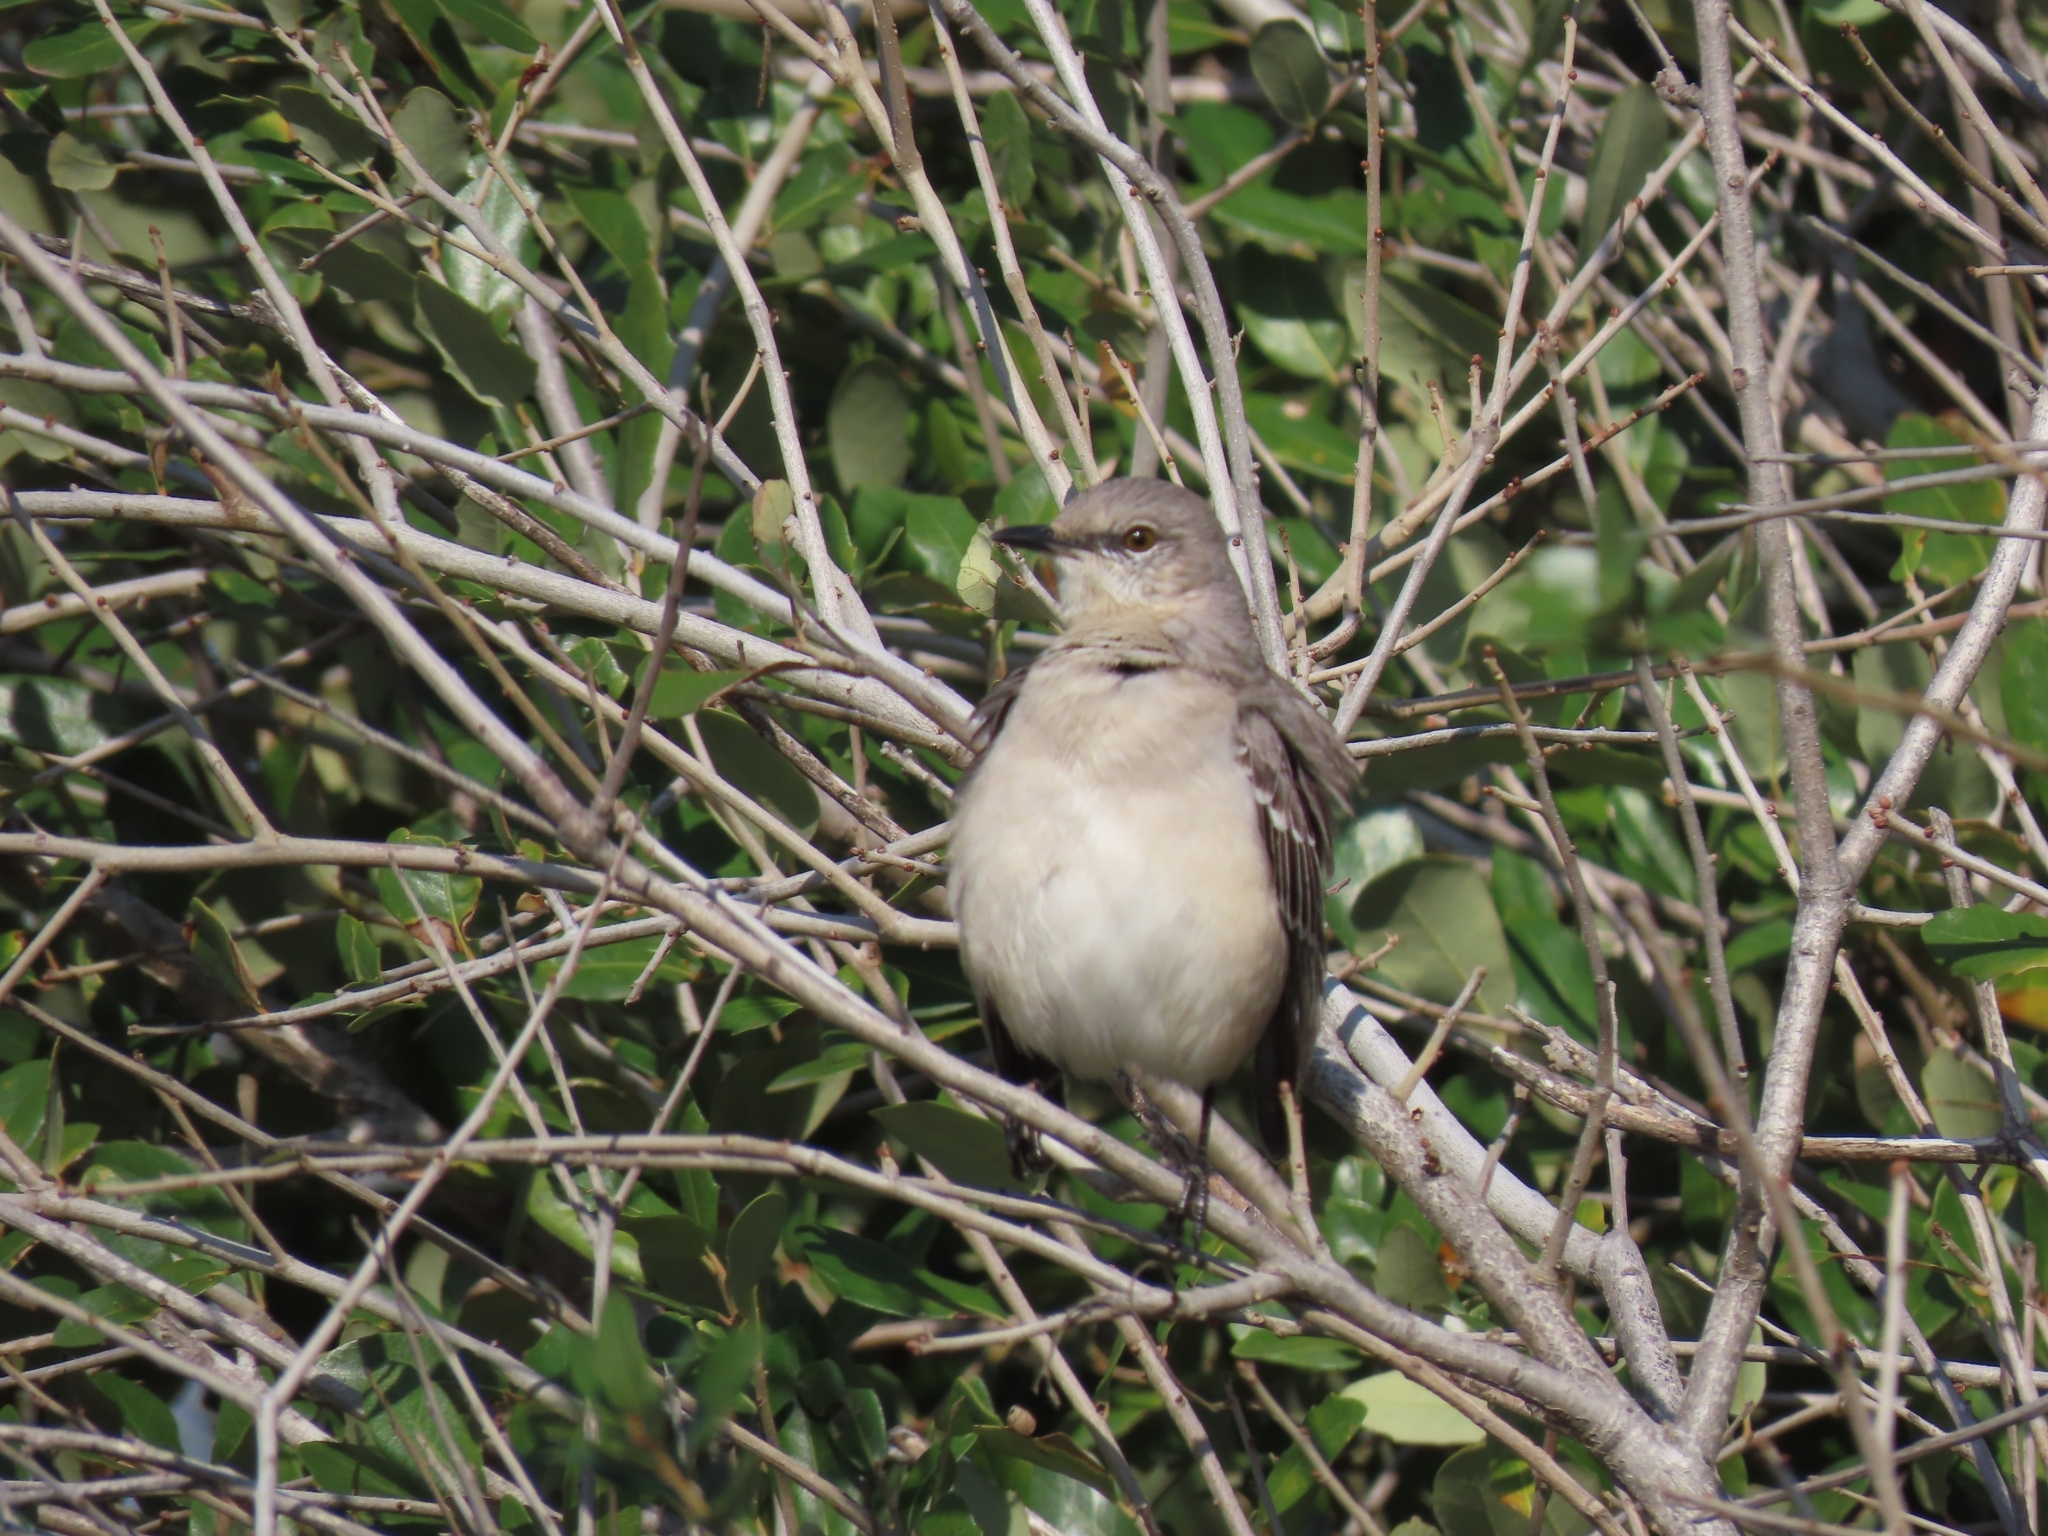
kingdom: Animalia
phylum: Chordata
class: Aves
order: Passeriformes
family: Mimidae
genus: Mimus
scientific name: Mimus polyglottos
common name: Northern mockingbird
